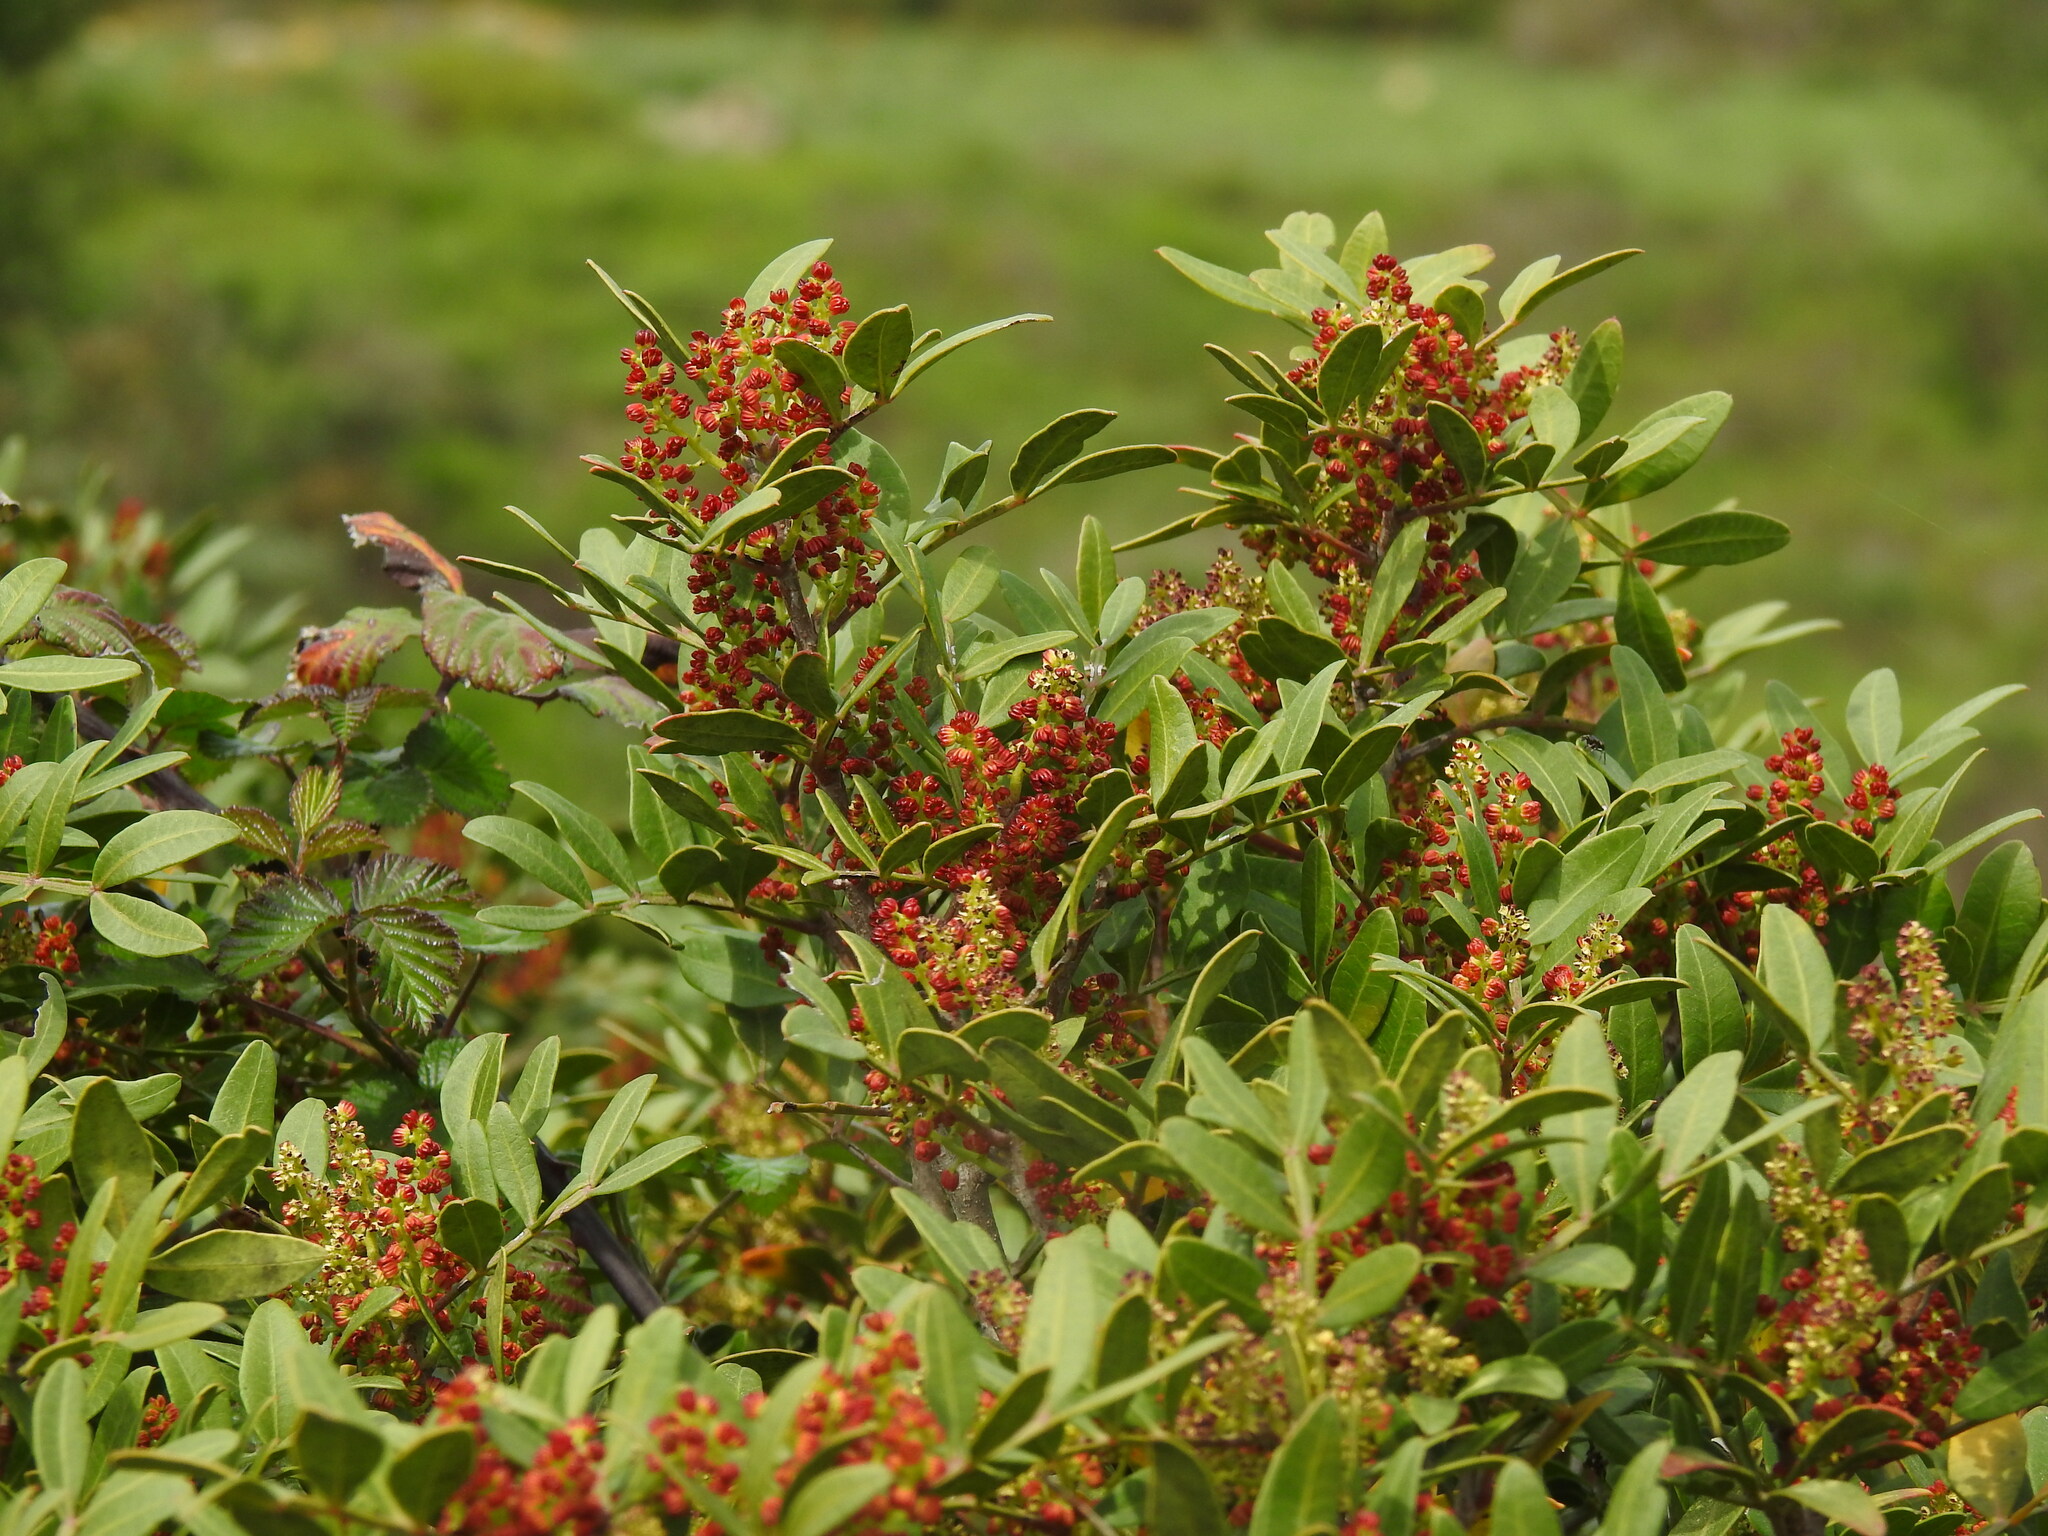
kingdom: Plantae
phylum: Tracheophyta
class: Magnoliopsida
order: Sapindales
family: Anacardiaceae
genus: Pistacia
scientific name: Pistacia lentiscus
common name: Lentisk
